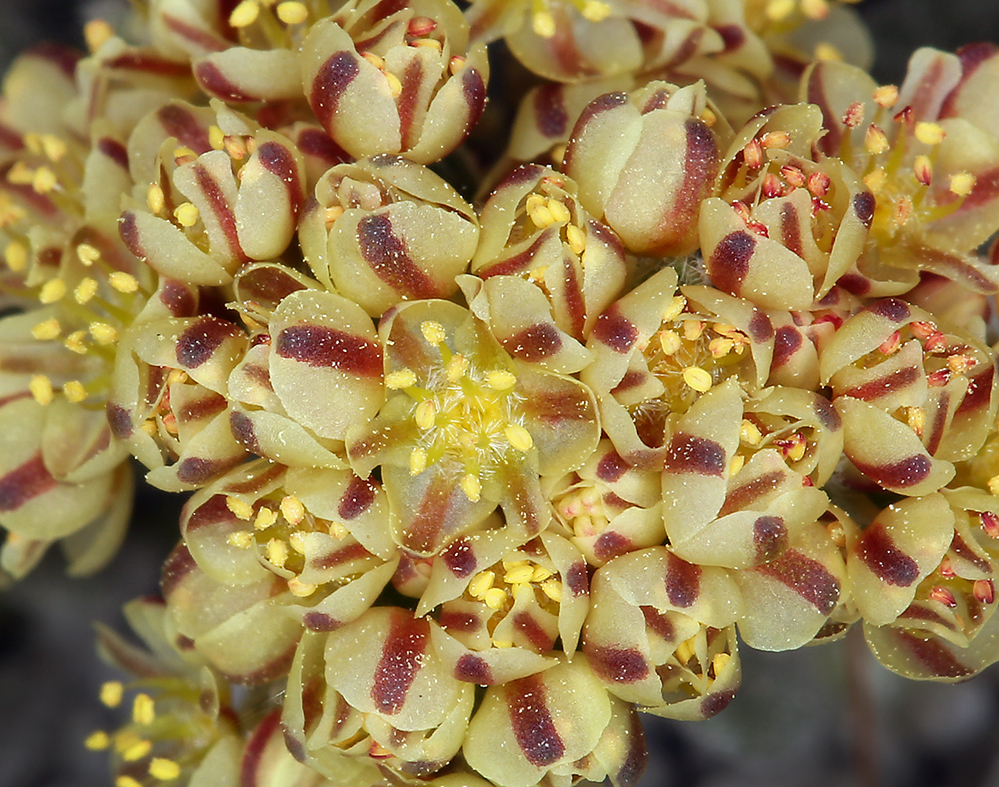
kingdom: Plantae
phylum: Tracheophyta
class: Magnoliopsida
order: Caryophyllales
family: Polygonaceae
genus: Eriogonum
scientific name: Eriogonum gilmanii
